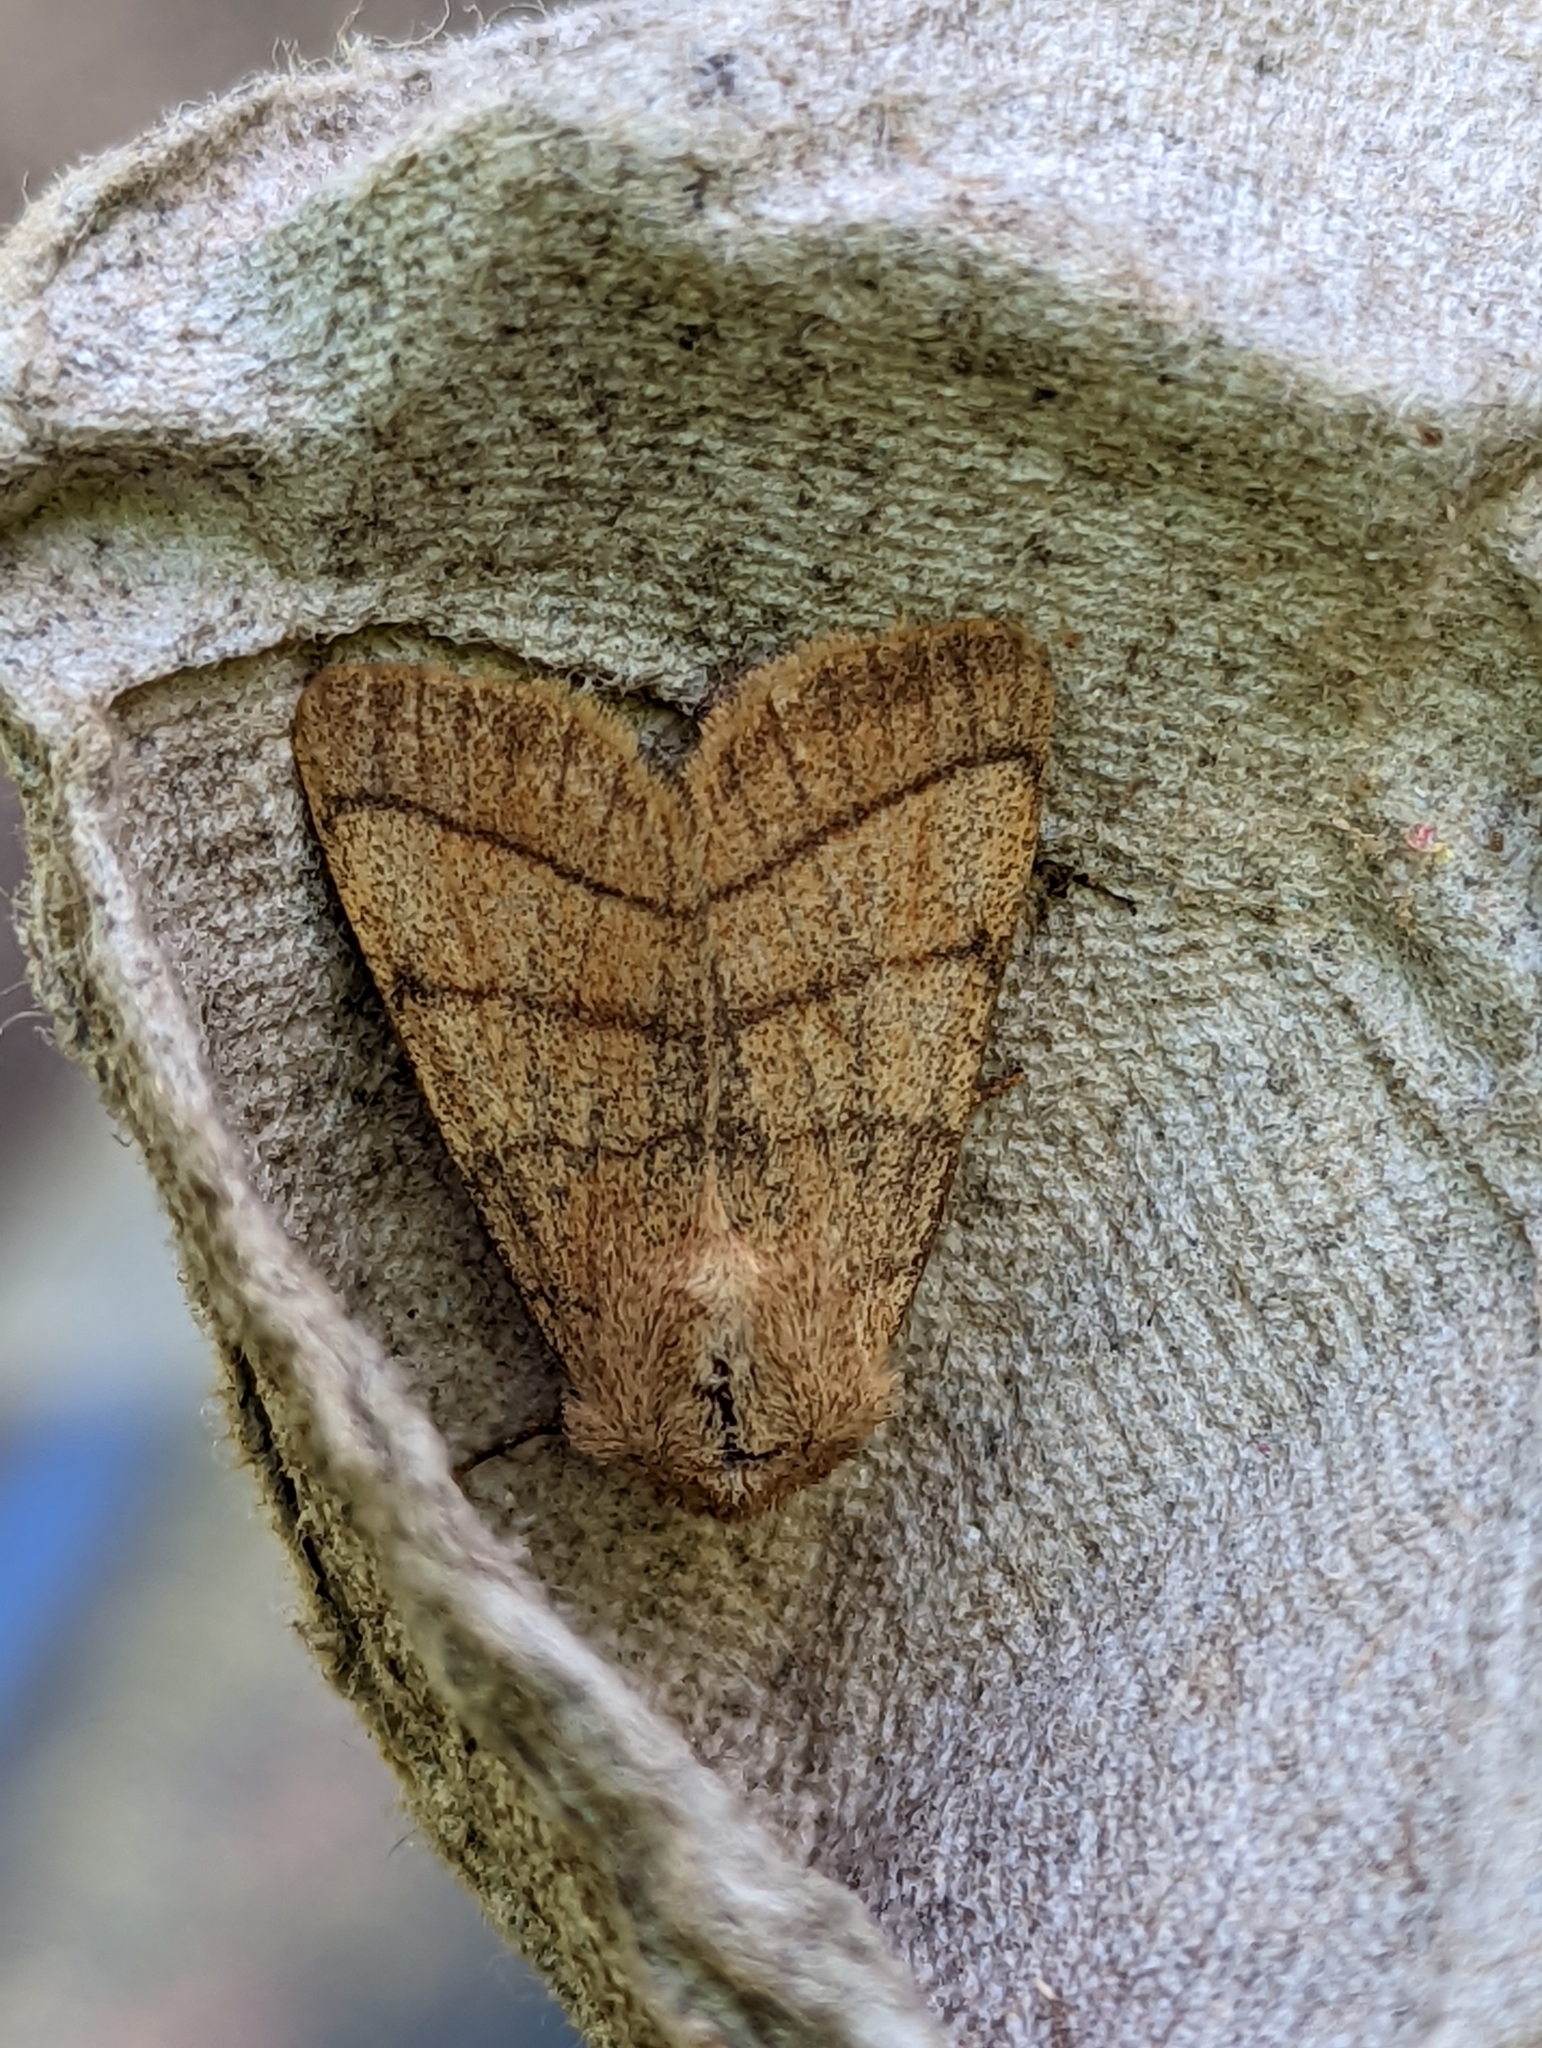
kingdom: Animalia
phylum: Arthropoda
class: Insecta
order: Lepidoptera
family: Noctuidae
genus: Charanyca
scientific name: Charanyca trigrammica
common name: Treble lines
